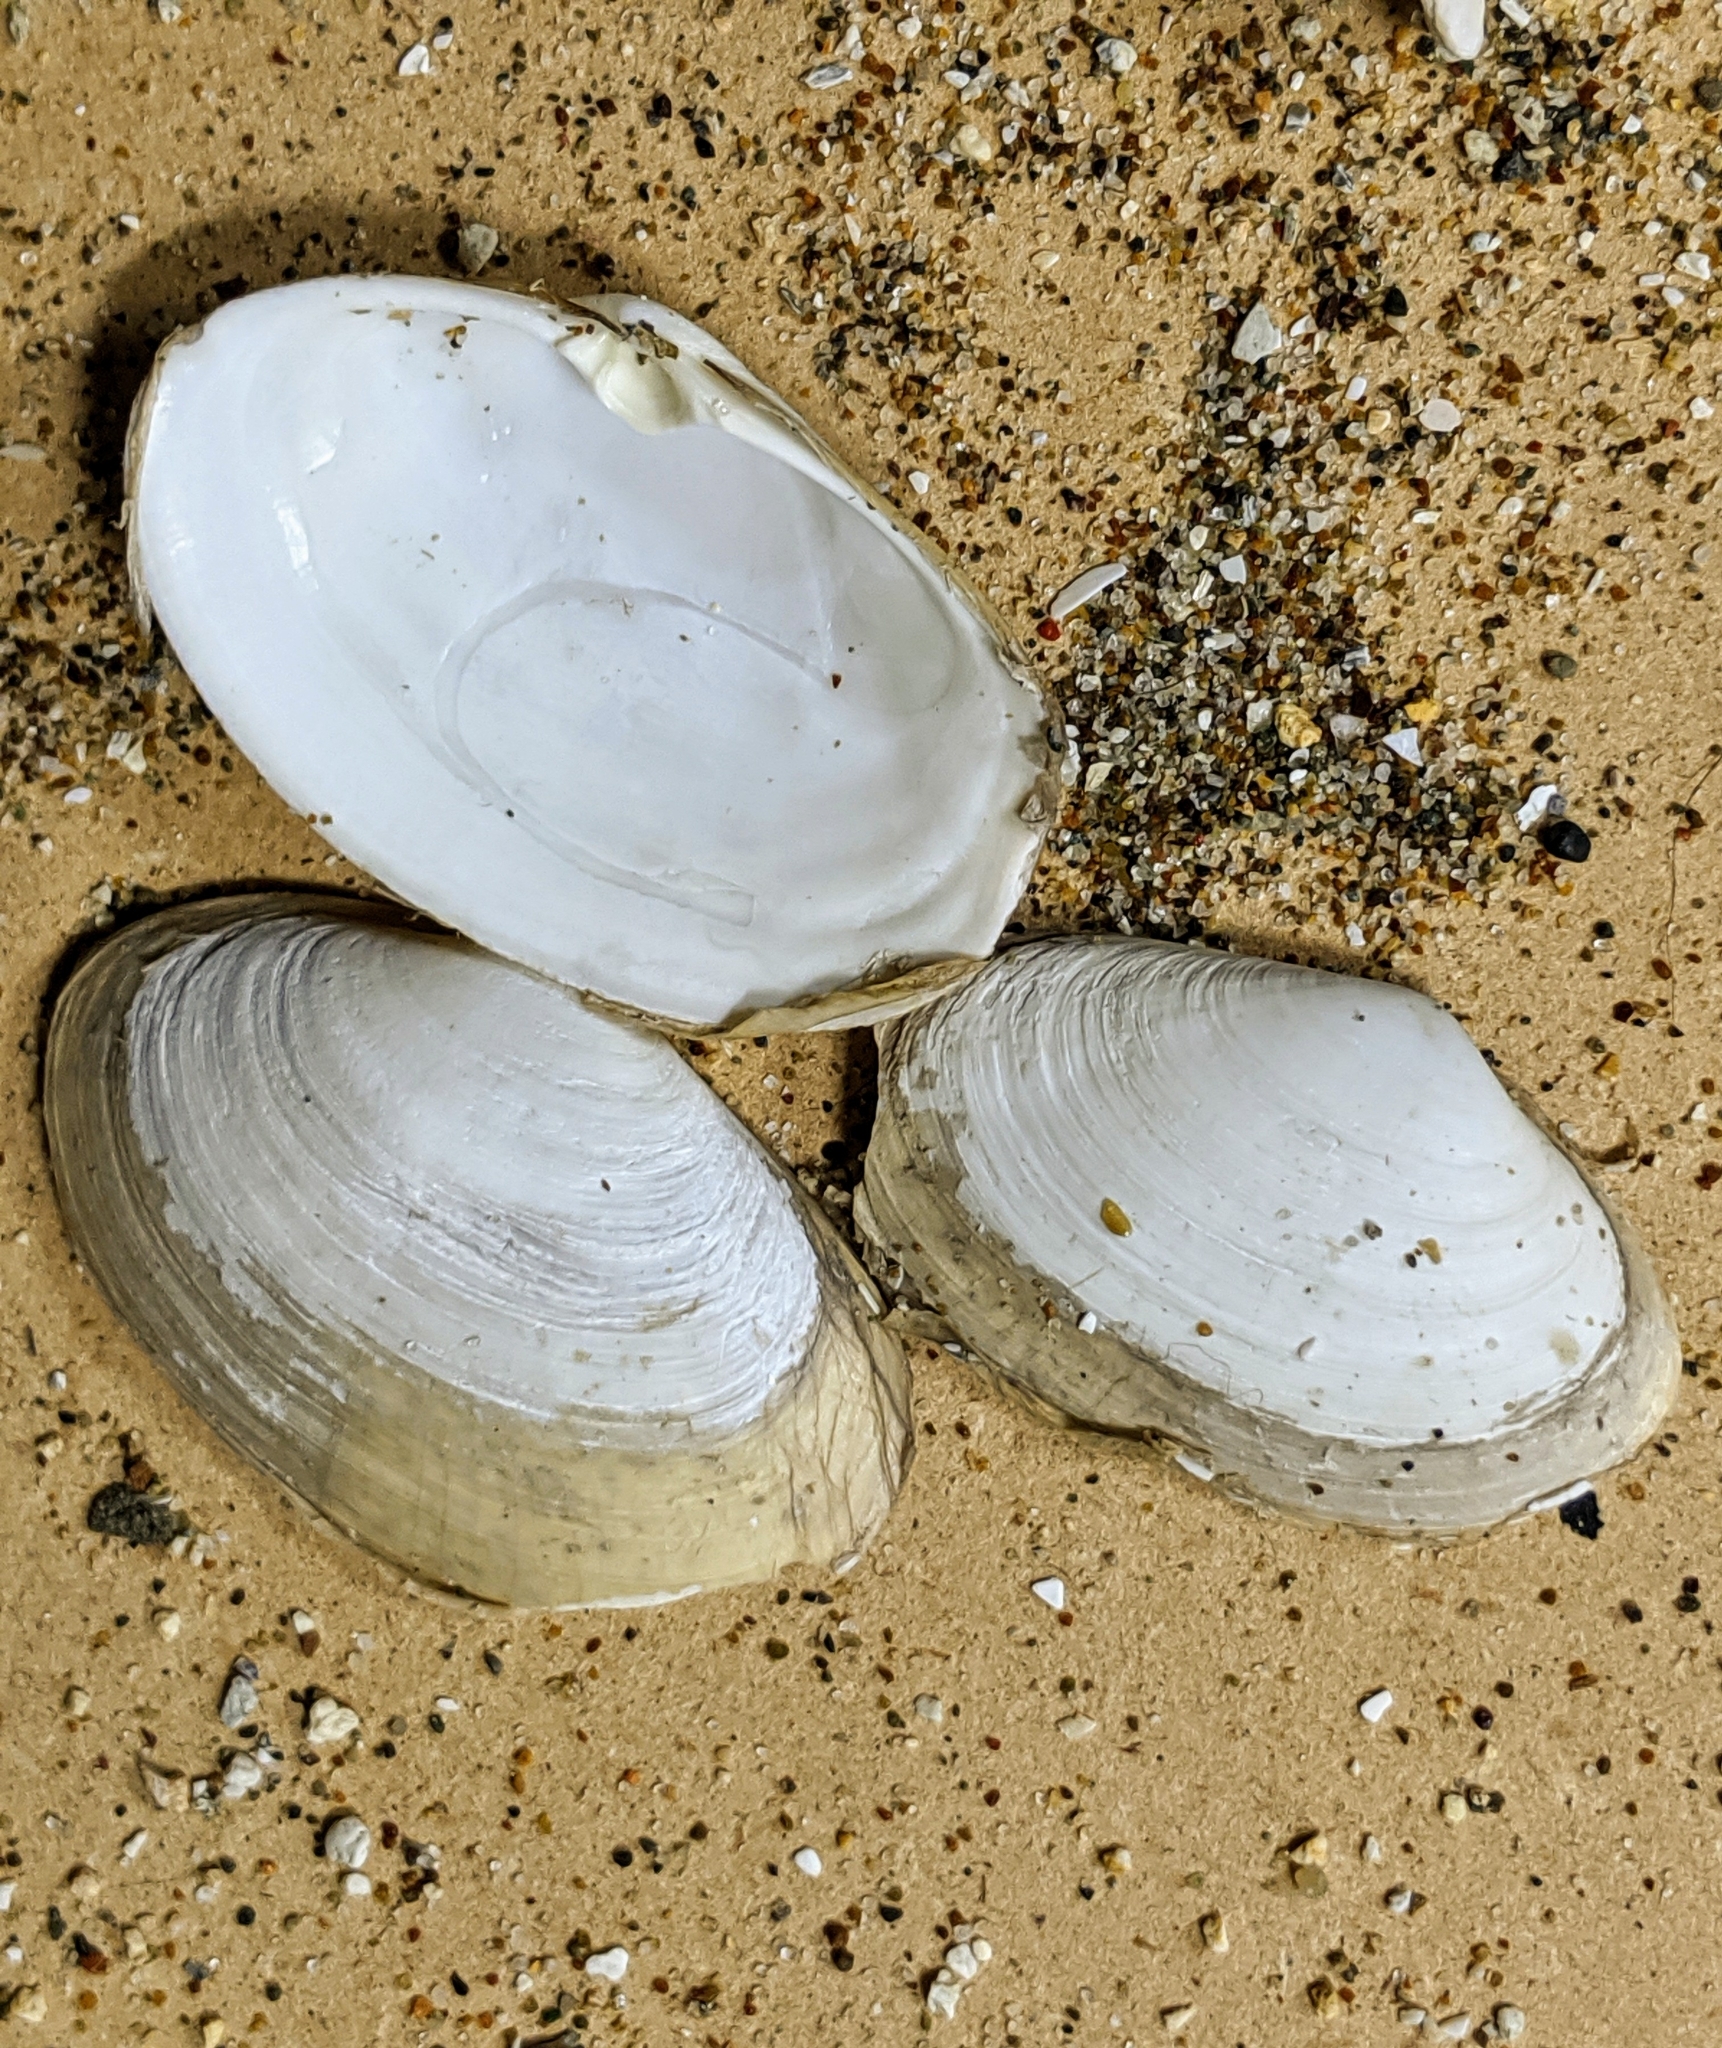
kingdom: Animalia
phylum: Mollusca
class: Bivalvia
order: Venerida
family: Mactridae
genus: Tresus
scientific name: Tresus nuttallii
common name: Pacific gaper clam
